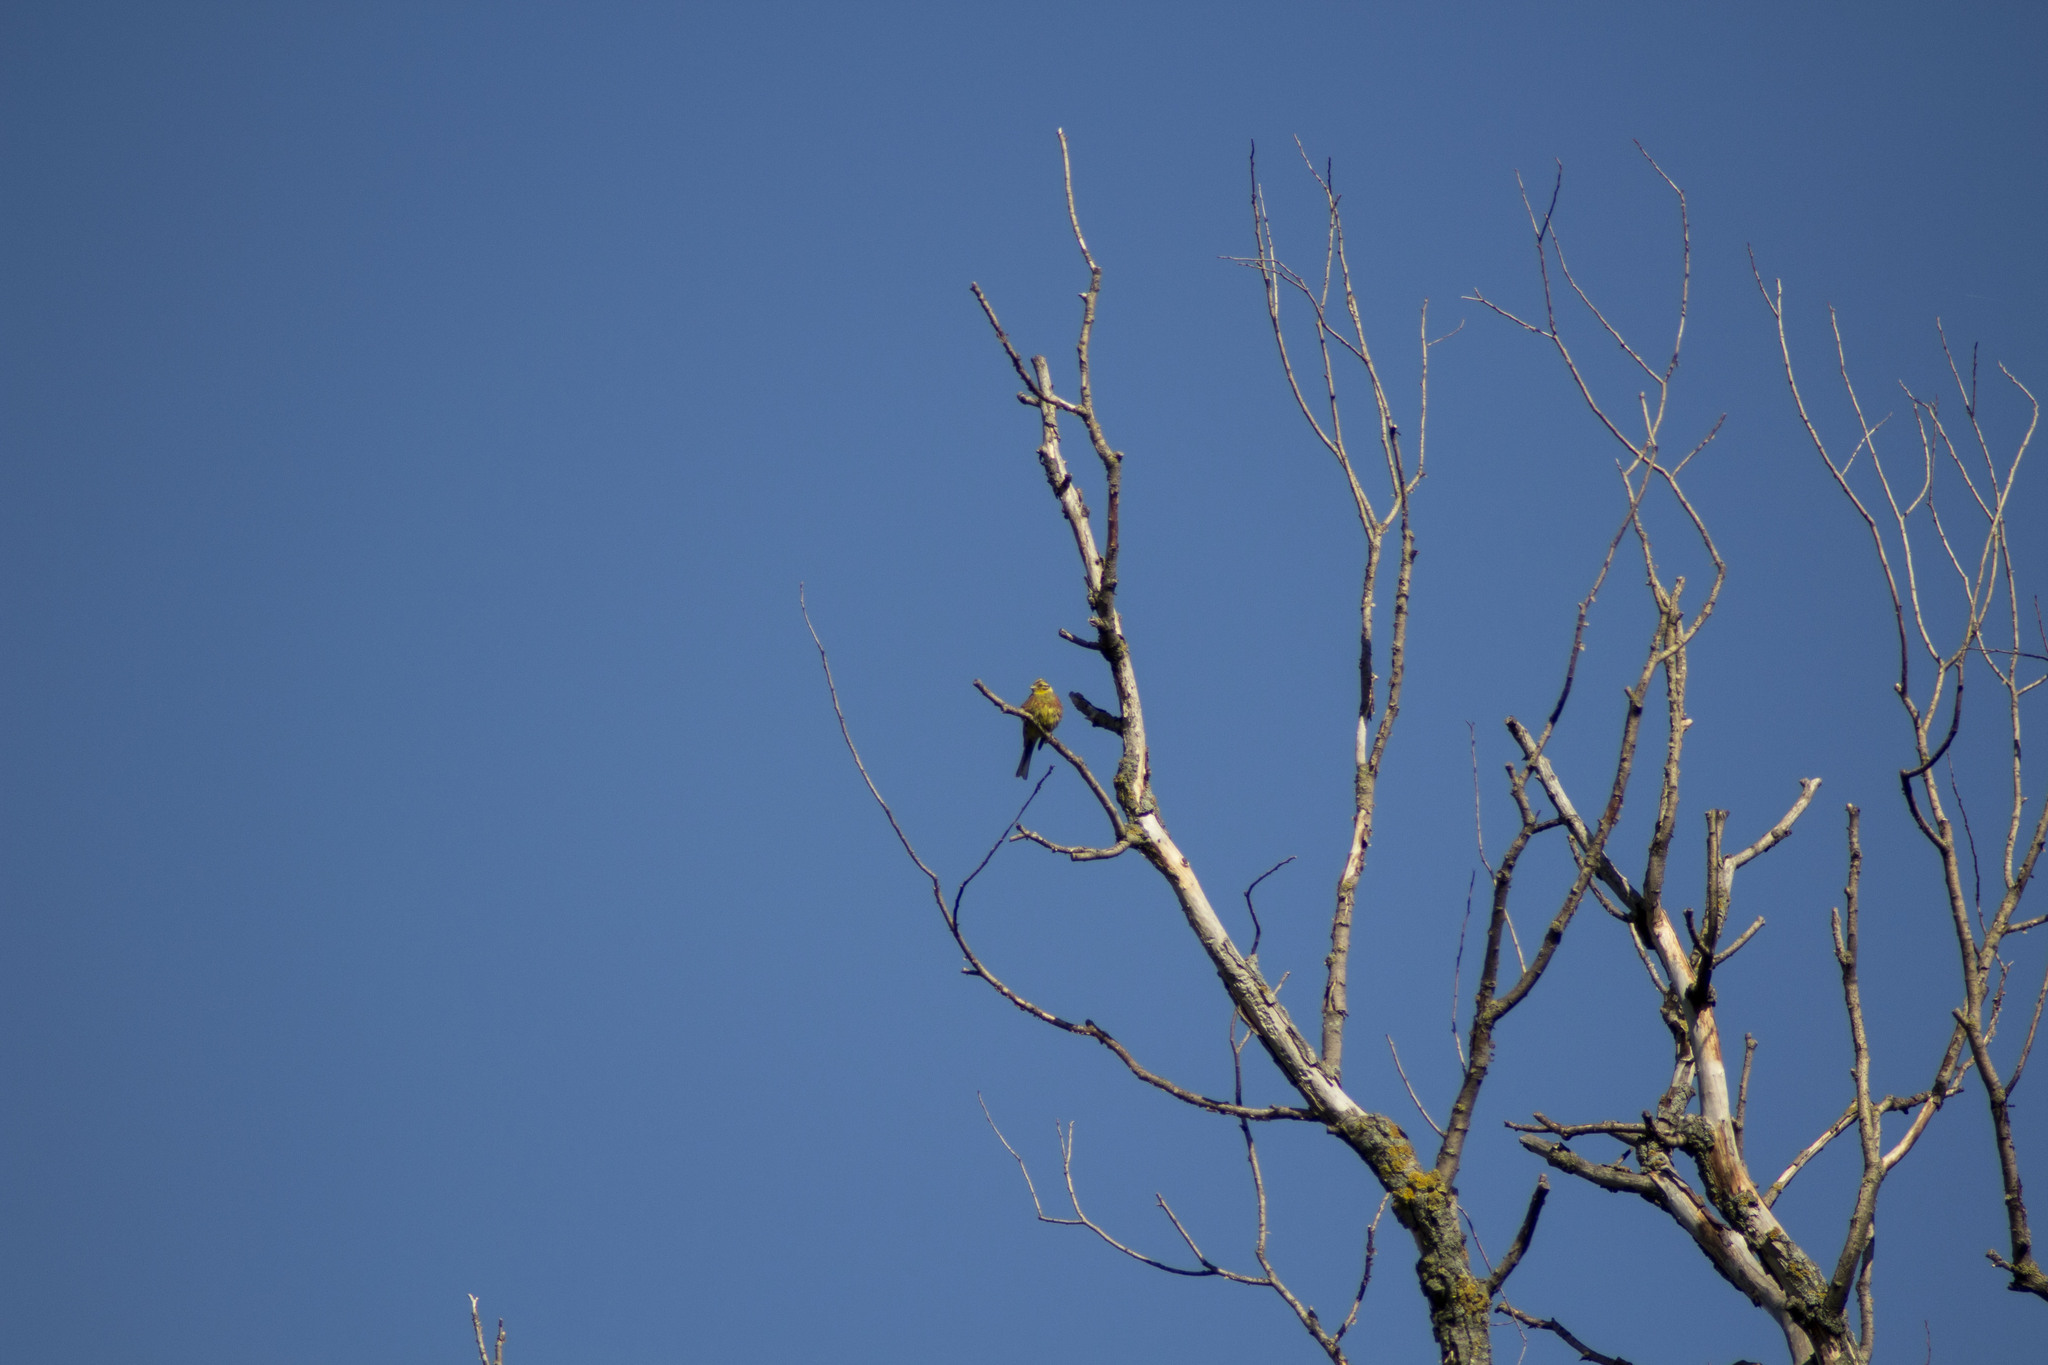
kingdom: Animalia
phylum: Chordata
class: Aves
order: Passeriformes
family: Emberizidae
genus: Emberiza
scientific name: Emberiza citrinella
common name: Yellowhammer
